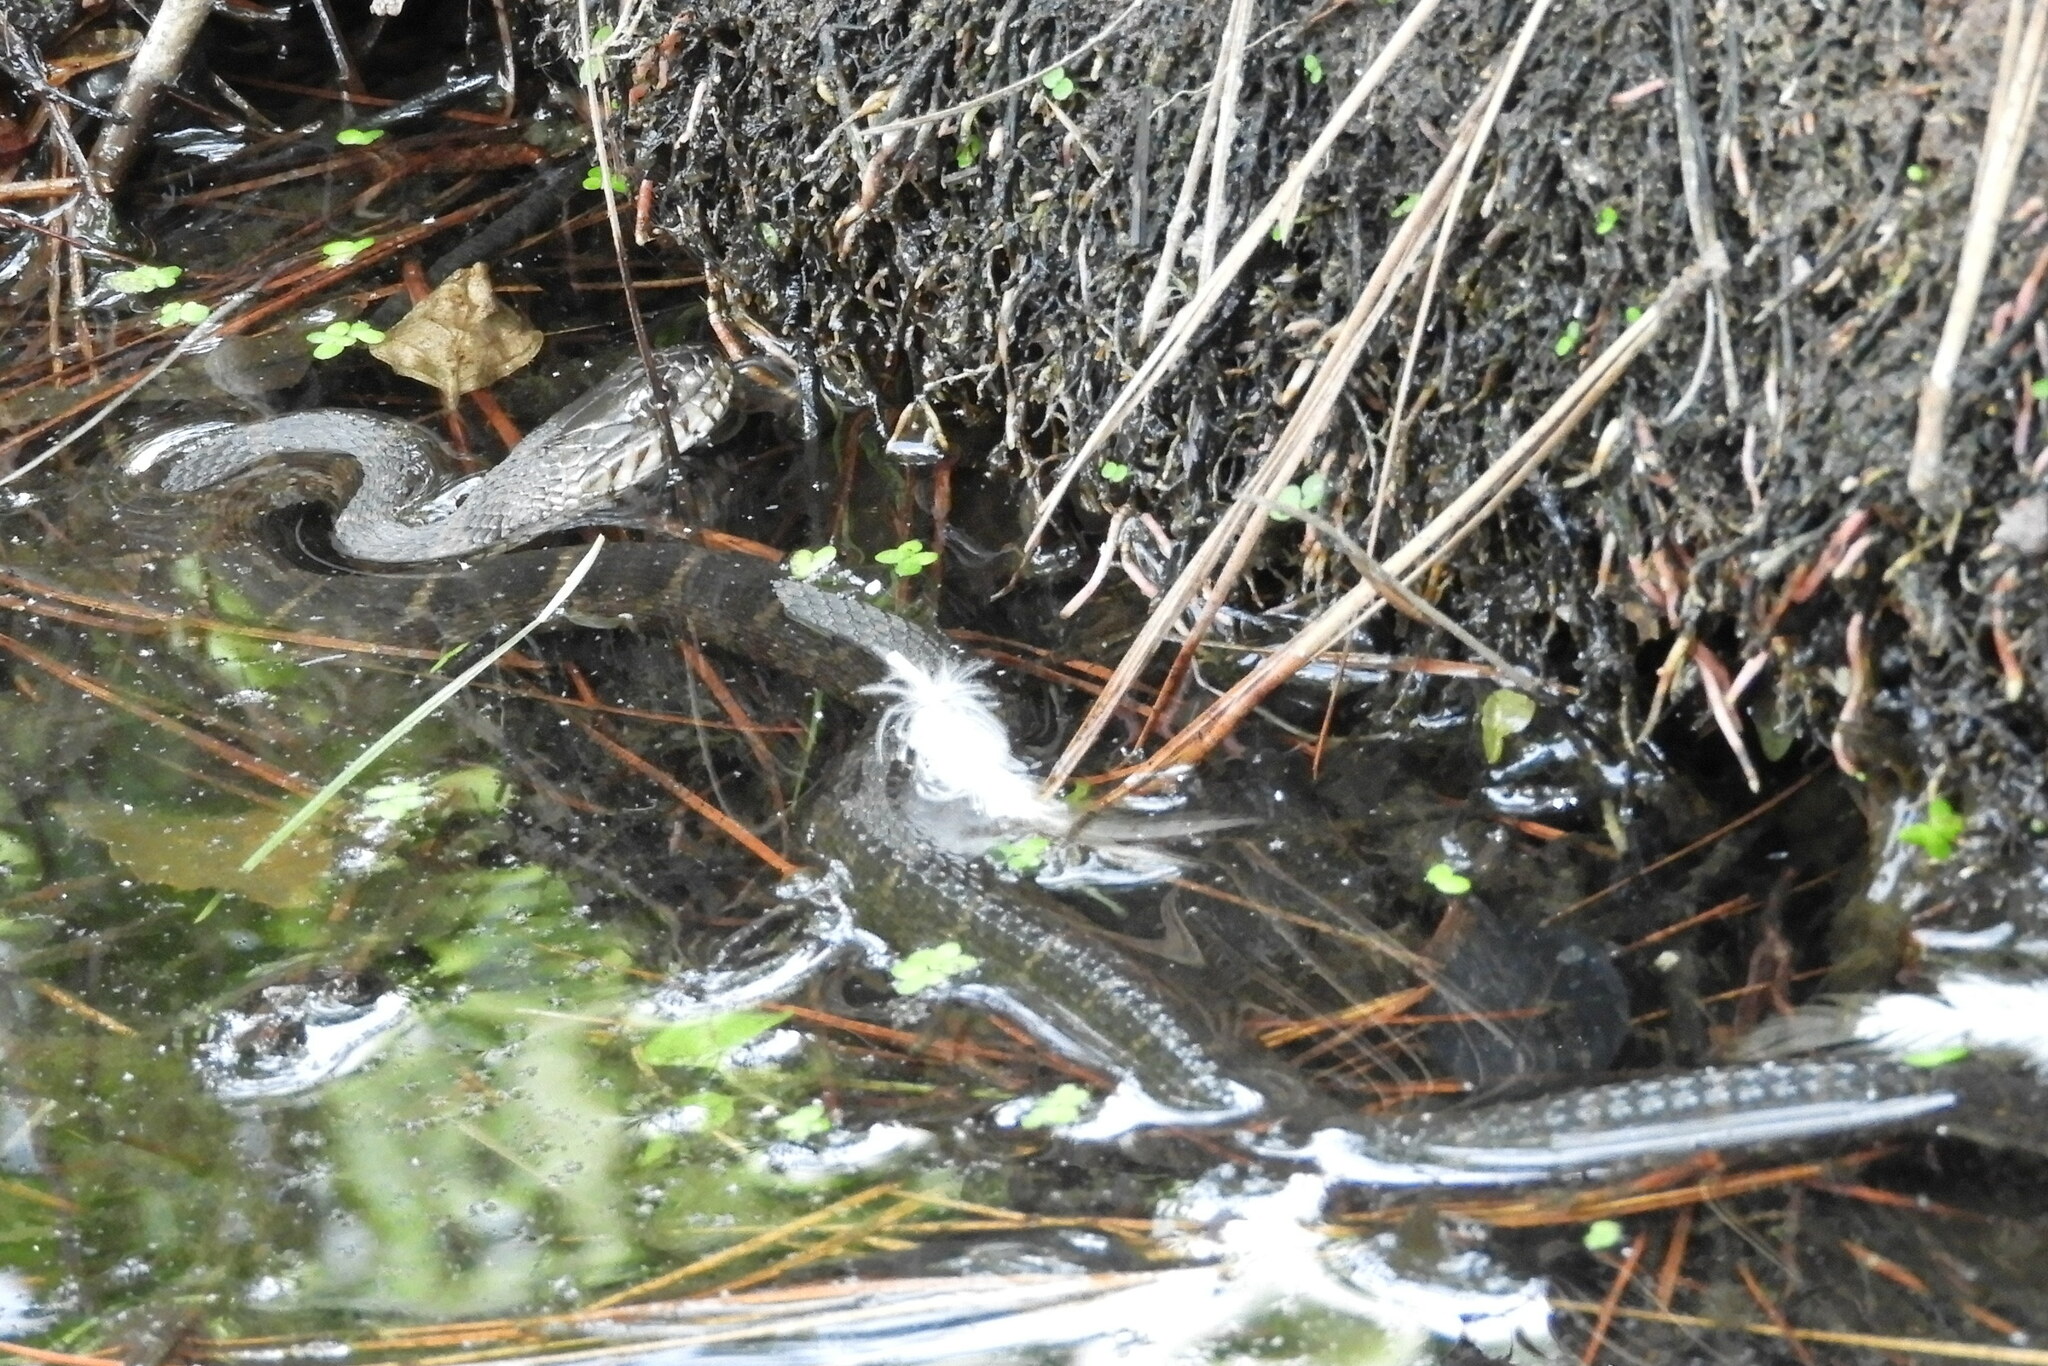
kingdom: Animalia
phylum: Chordata
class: Squamata
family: Colubridae
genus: Nerodia
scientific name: Nerodia sipedon
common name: Northern water snake
